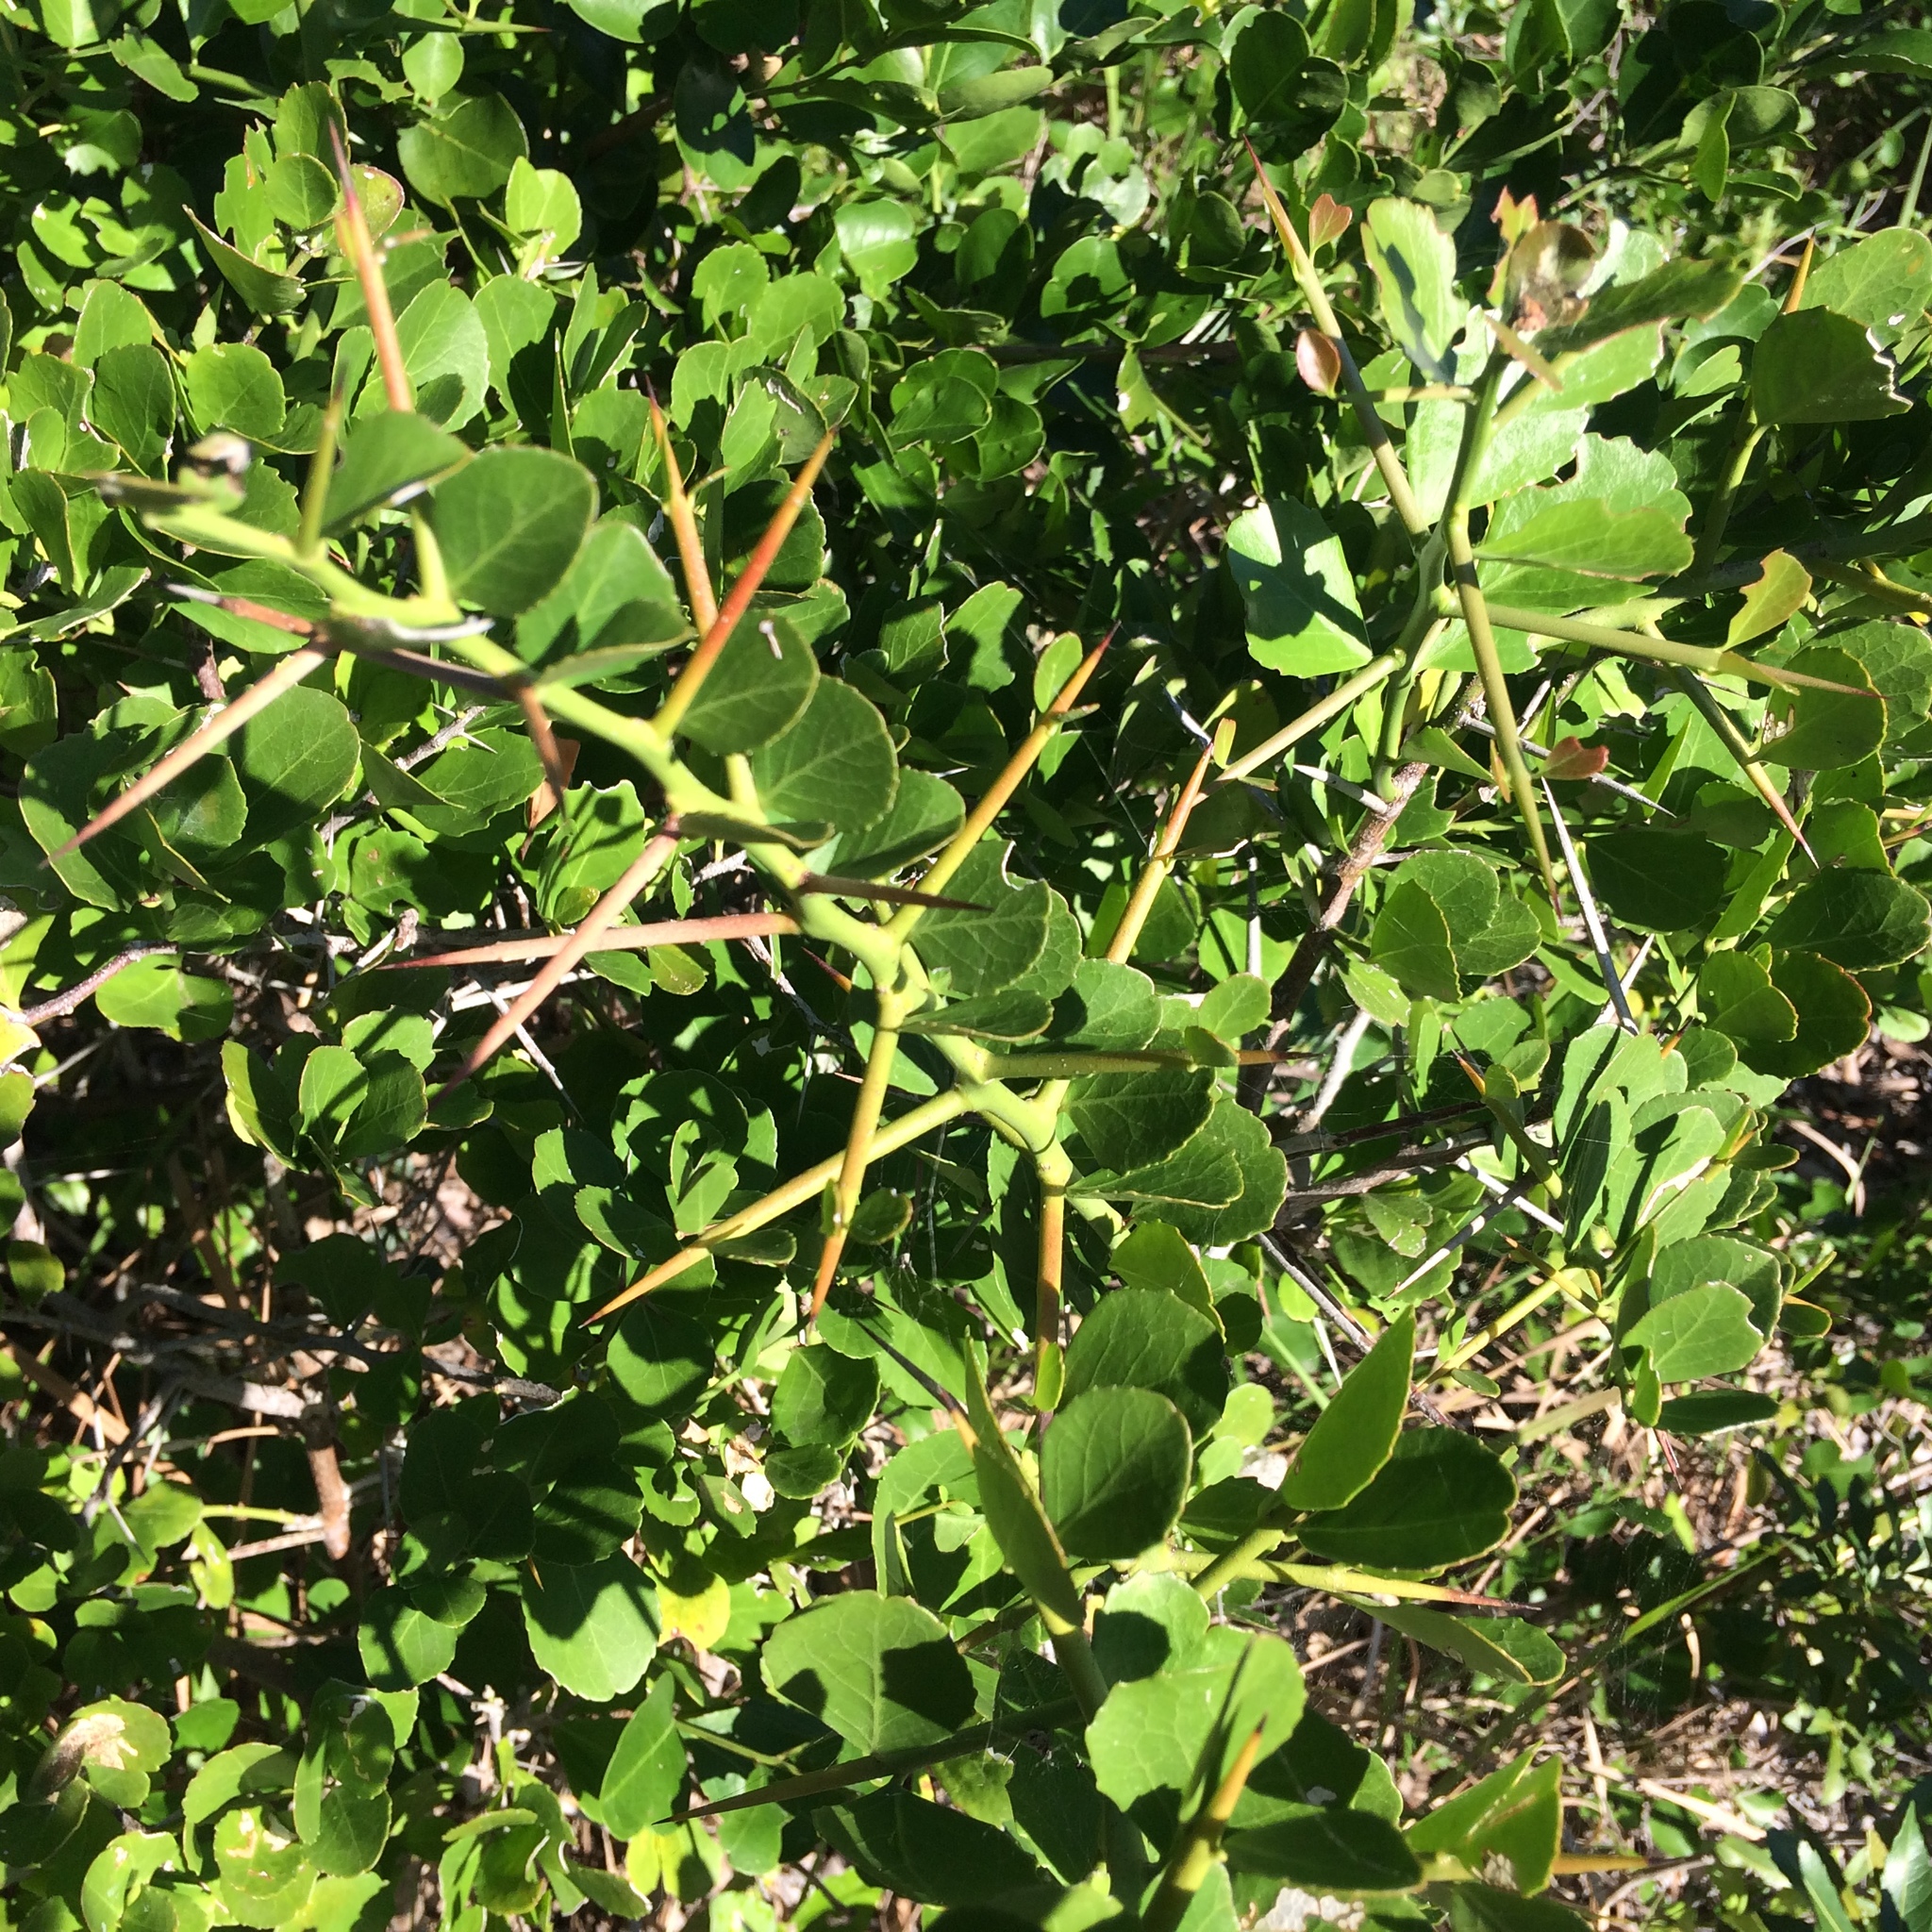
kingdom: Plantae
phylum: Tracheophyta
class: Magnoliopsida
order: Celastrales
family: Celastraceae
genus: Gymnosporia
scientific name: Gymnosporia
